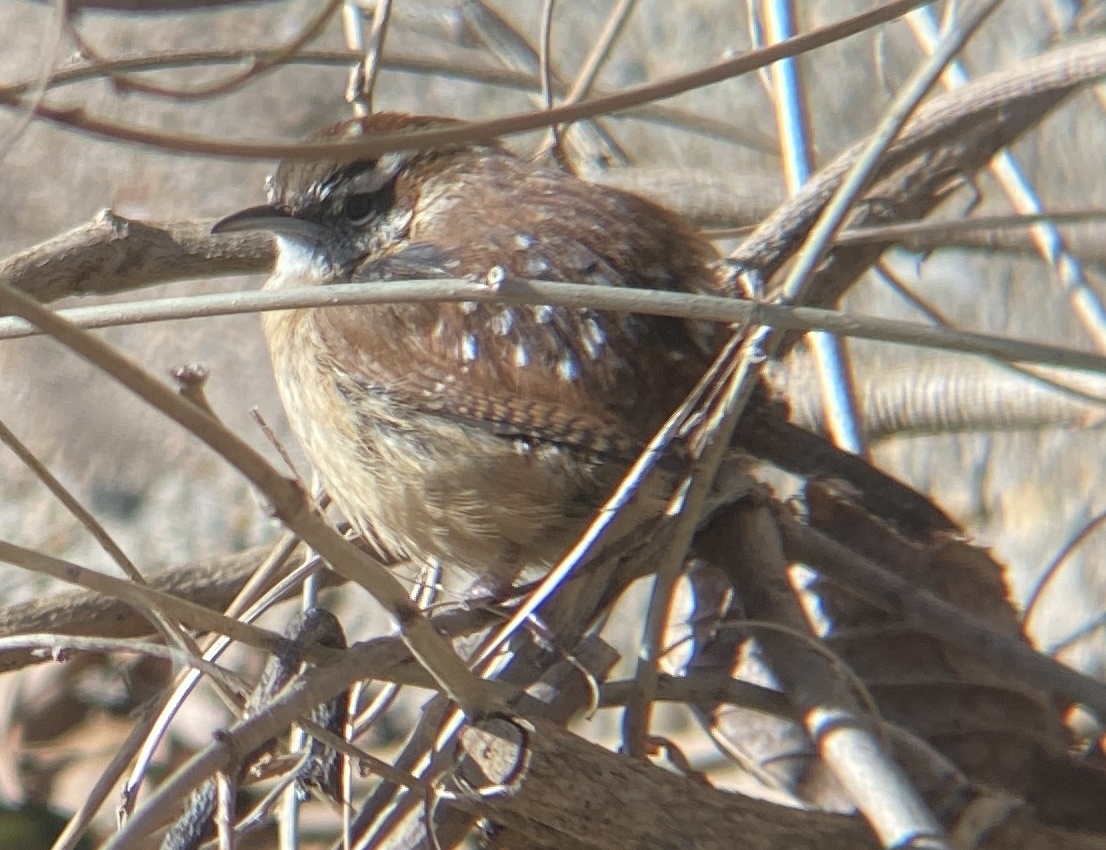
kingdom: Animalia
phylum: Chordata
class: Aves
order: Passeriformes
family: Troglodytidae
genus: Thryothorus
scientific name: Thryothorus ludovicianus
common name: Carolina wren
